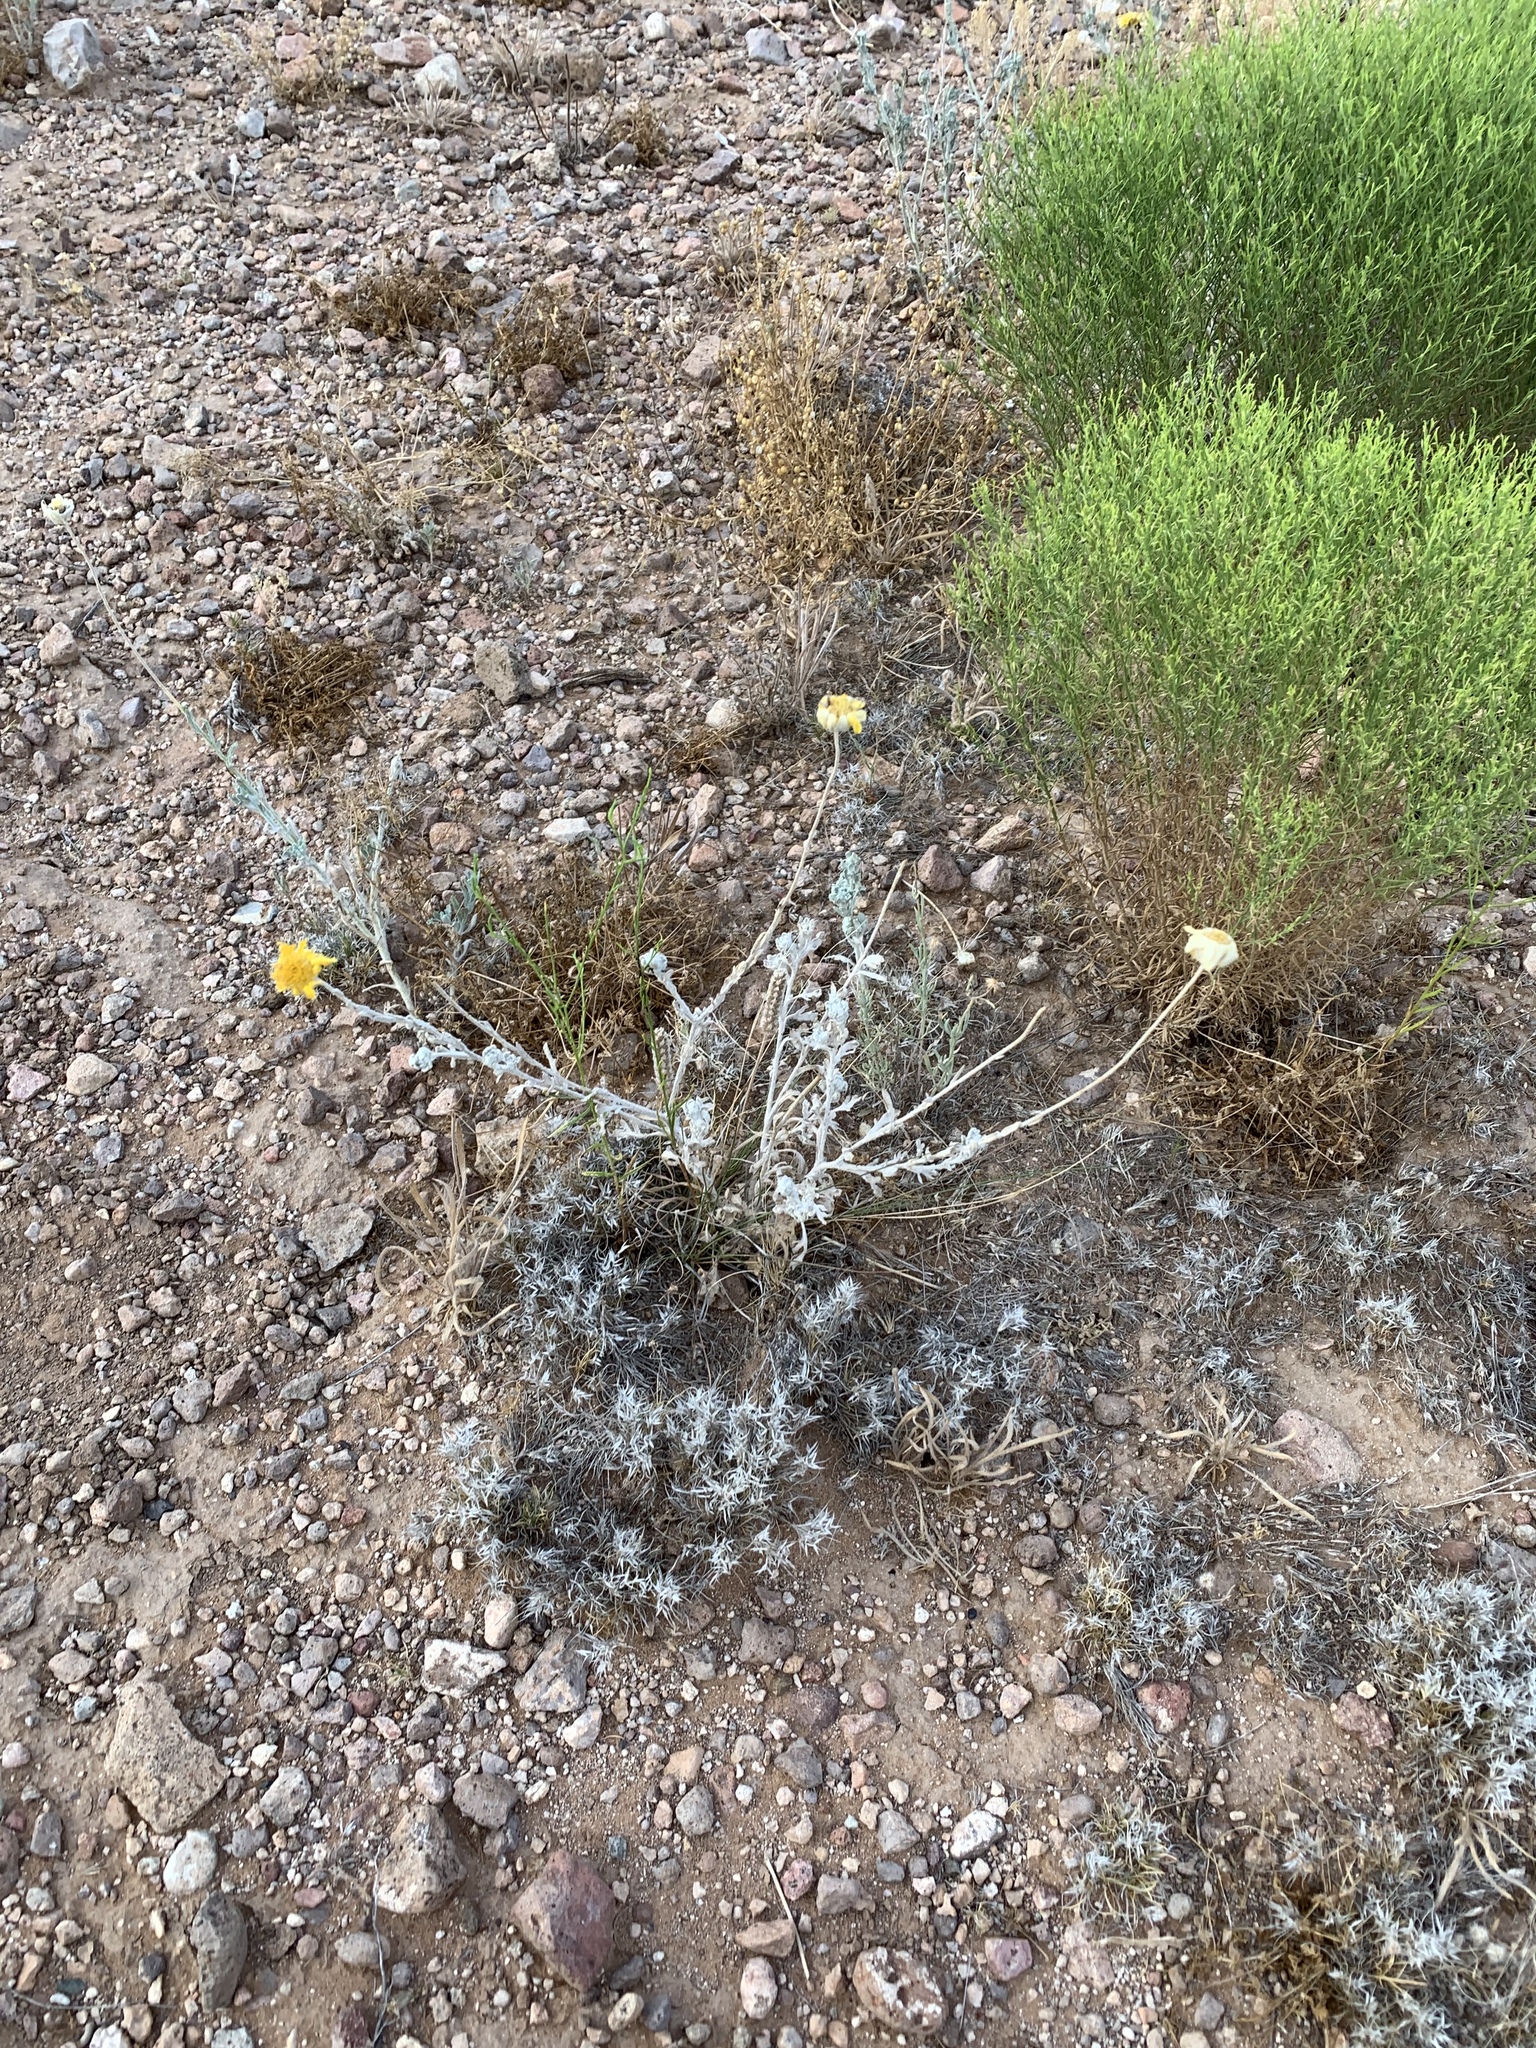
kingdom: Plantae
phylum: Tracheophyta
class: Magnoliopsida
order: Asterales
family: Asteraceae
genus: Baileya
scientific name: Baileya multiradiata
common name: Desert-marigold
